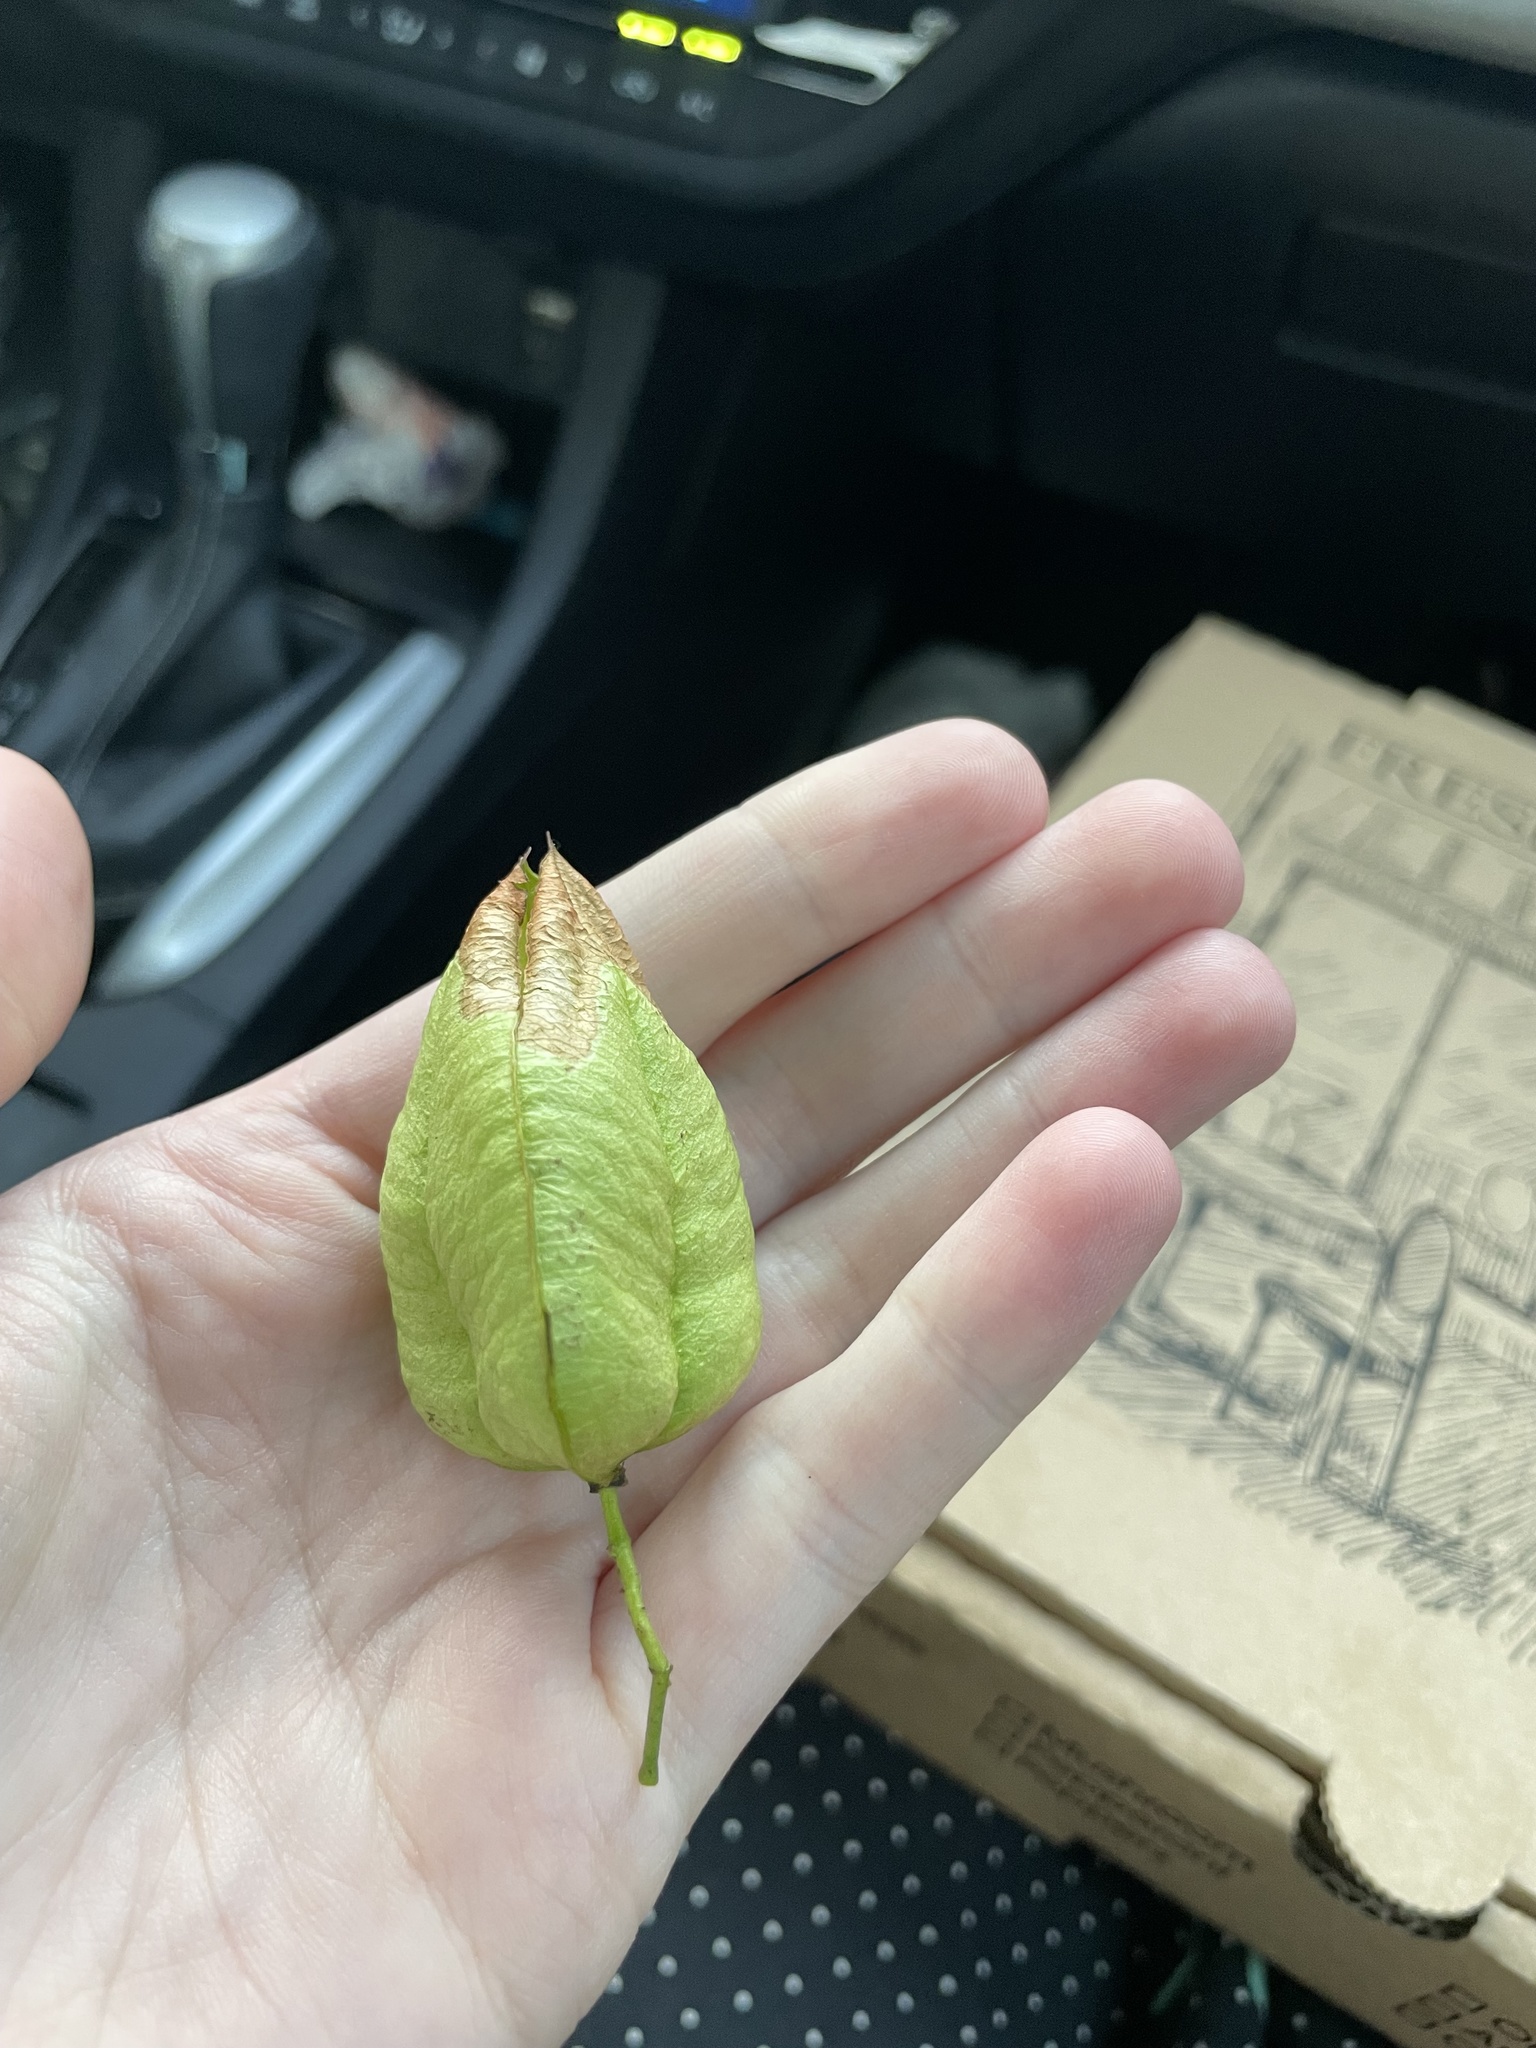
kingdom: Plantae
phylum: Tracheophyta
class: Magnoliopsida
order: Sapindales
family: Sapindaceae
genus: Koelreuteria
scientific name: Koelreuteria paniculata
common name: Pride-of-india
